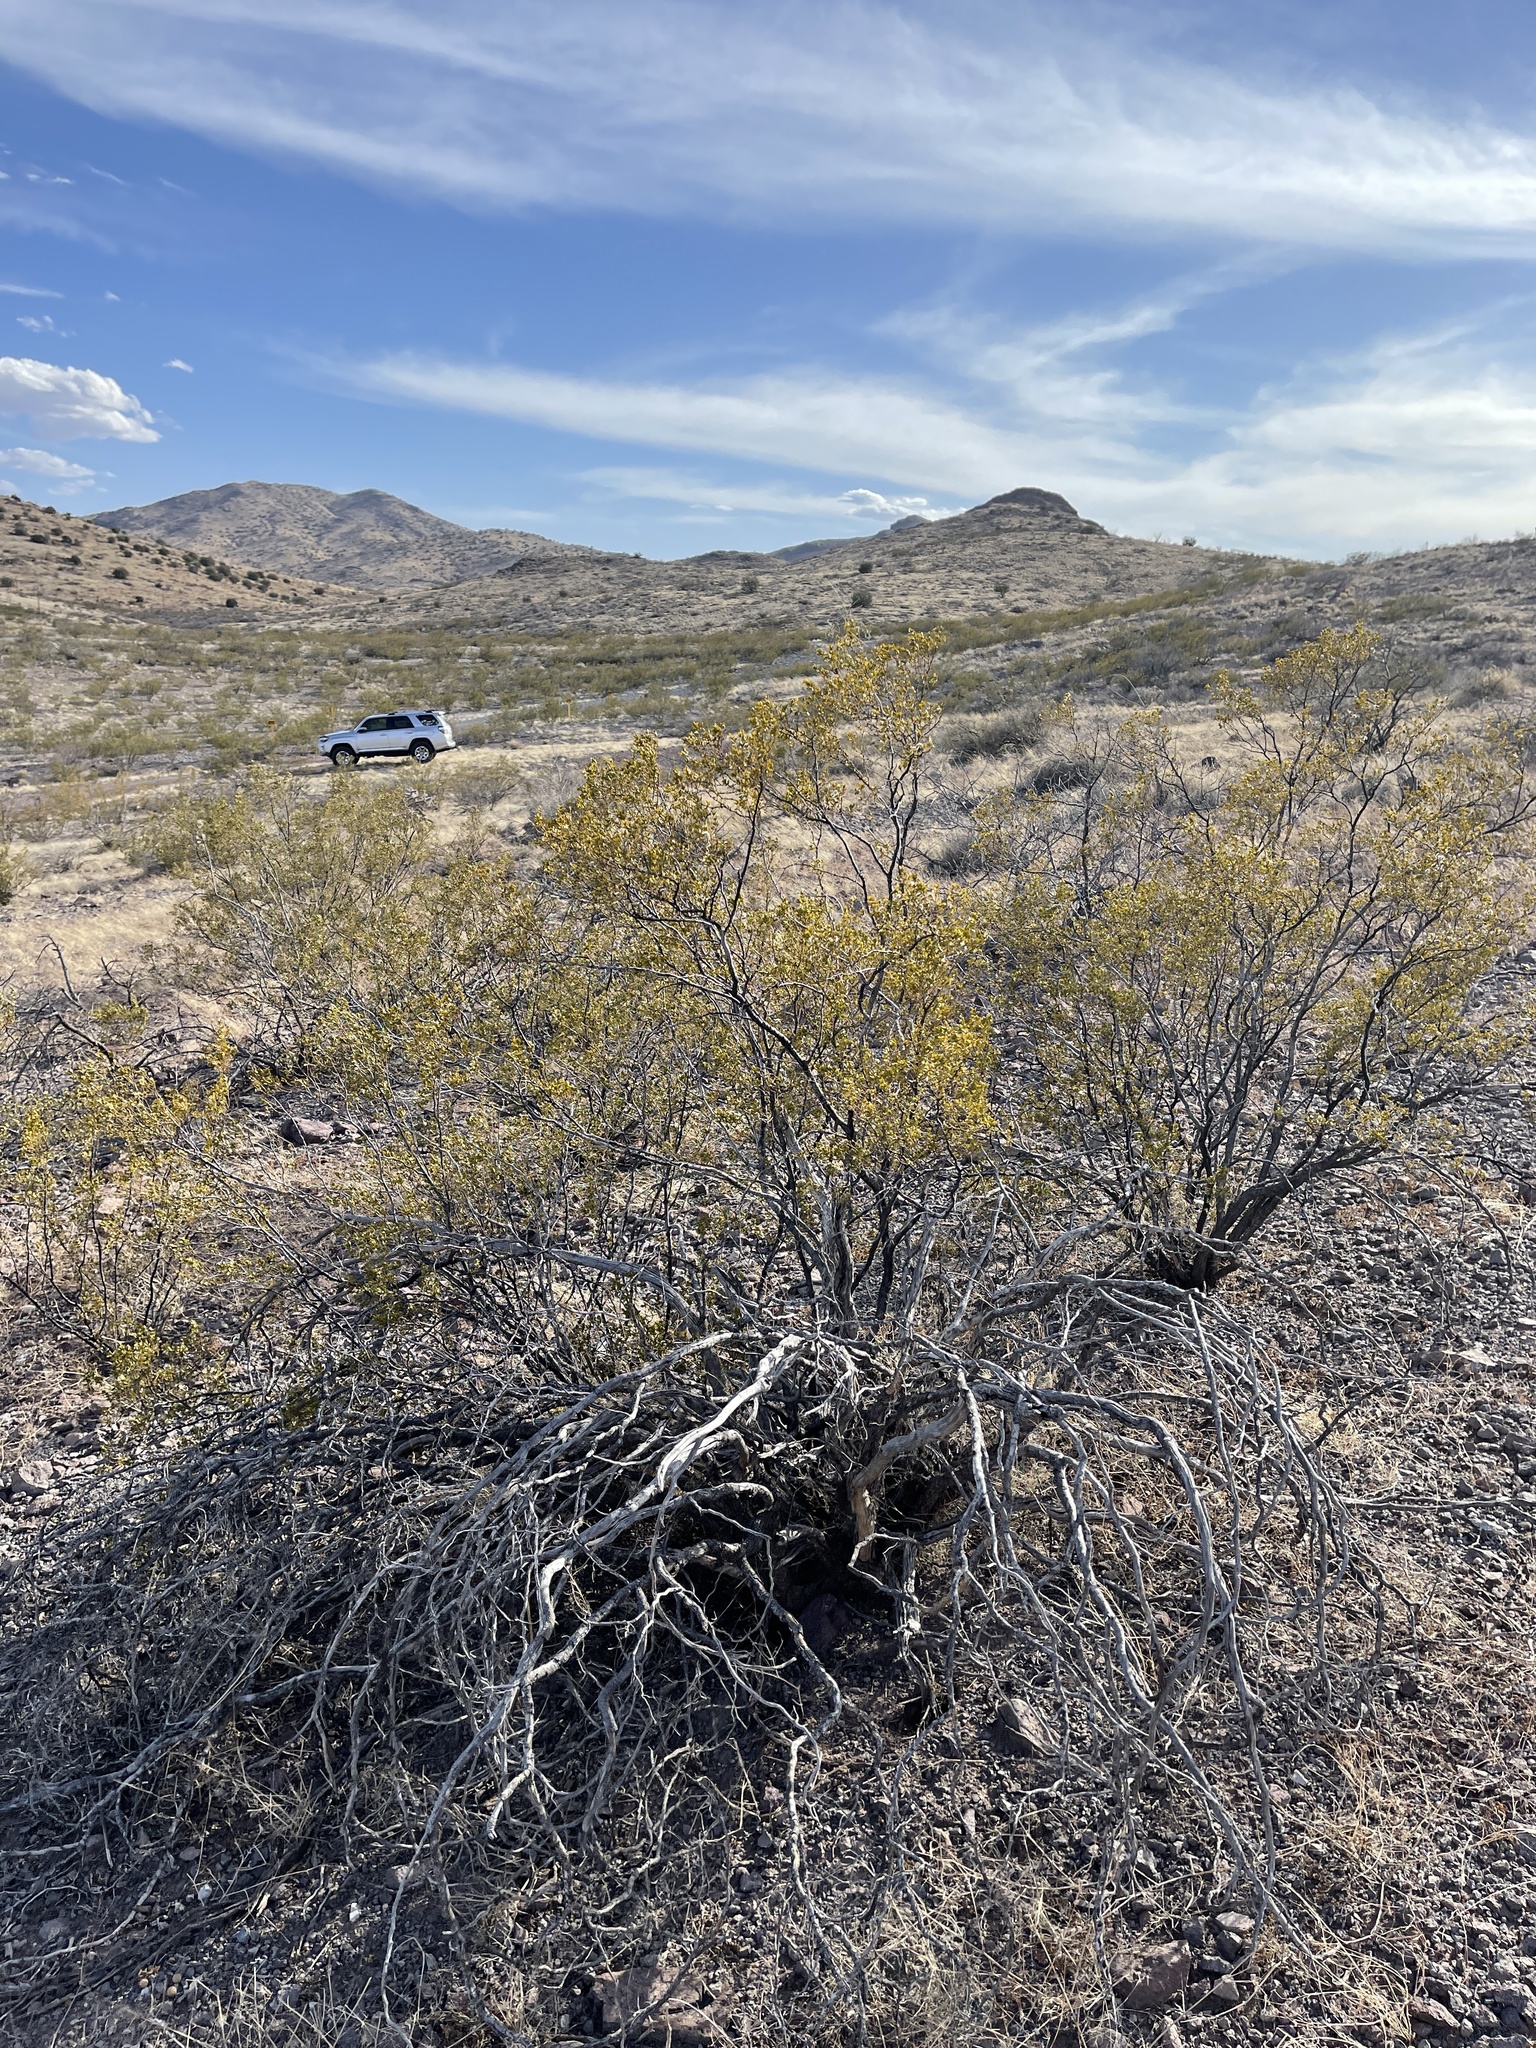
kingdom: Plantae
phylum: Tracheophyta
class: Magnoliopsida
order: Zygophyllales
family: Zygophyllaceae
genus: Larrea
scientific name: Larrea tridentata
